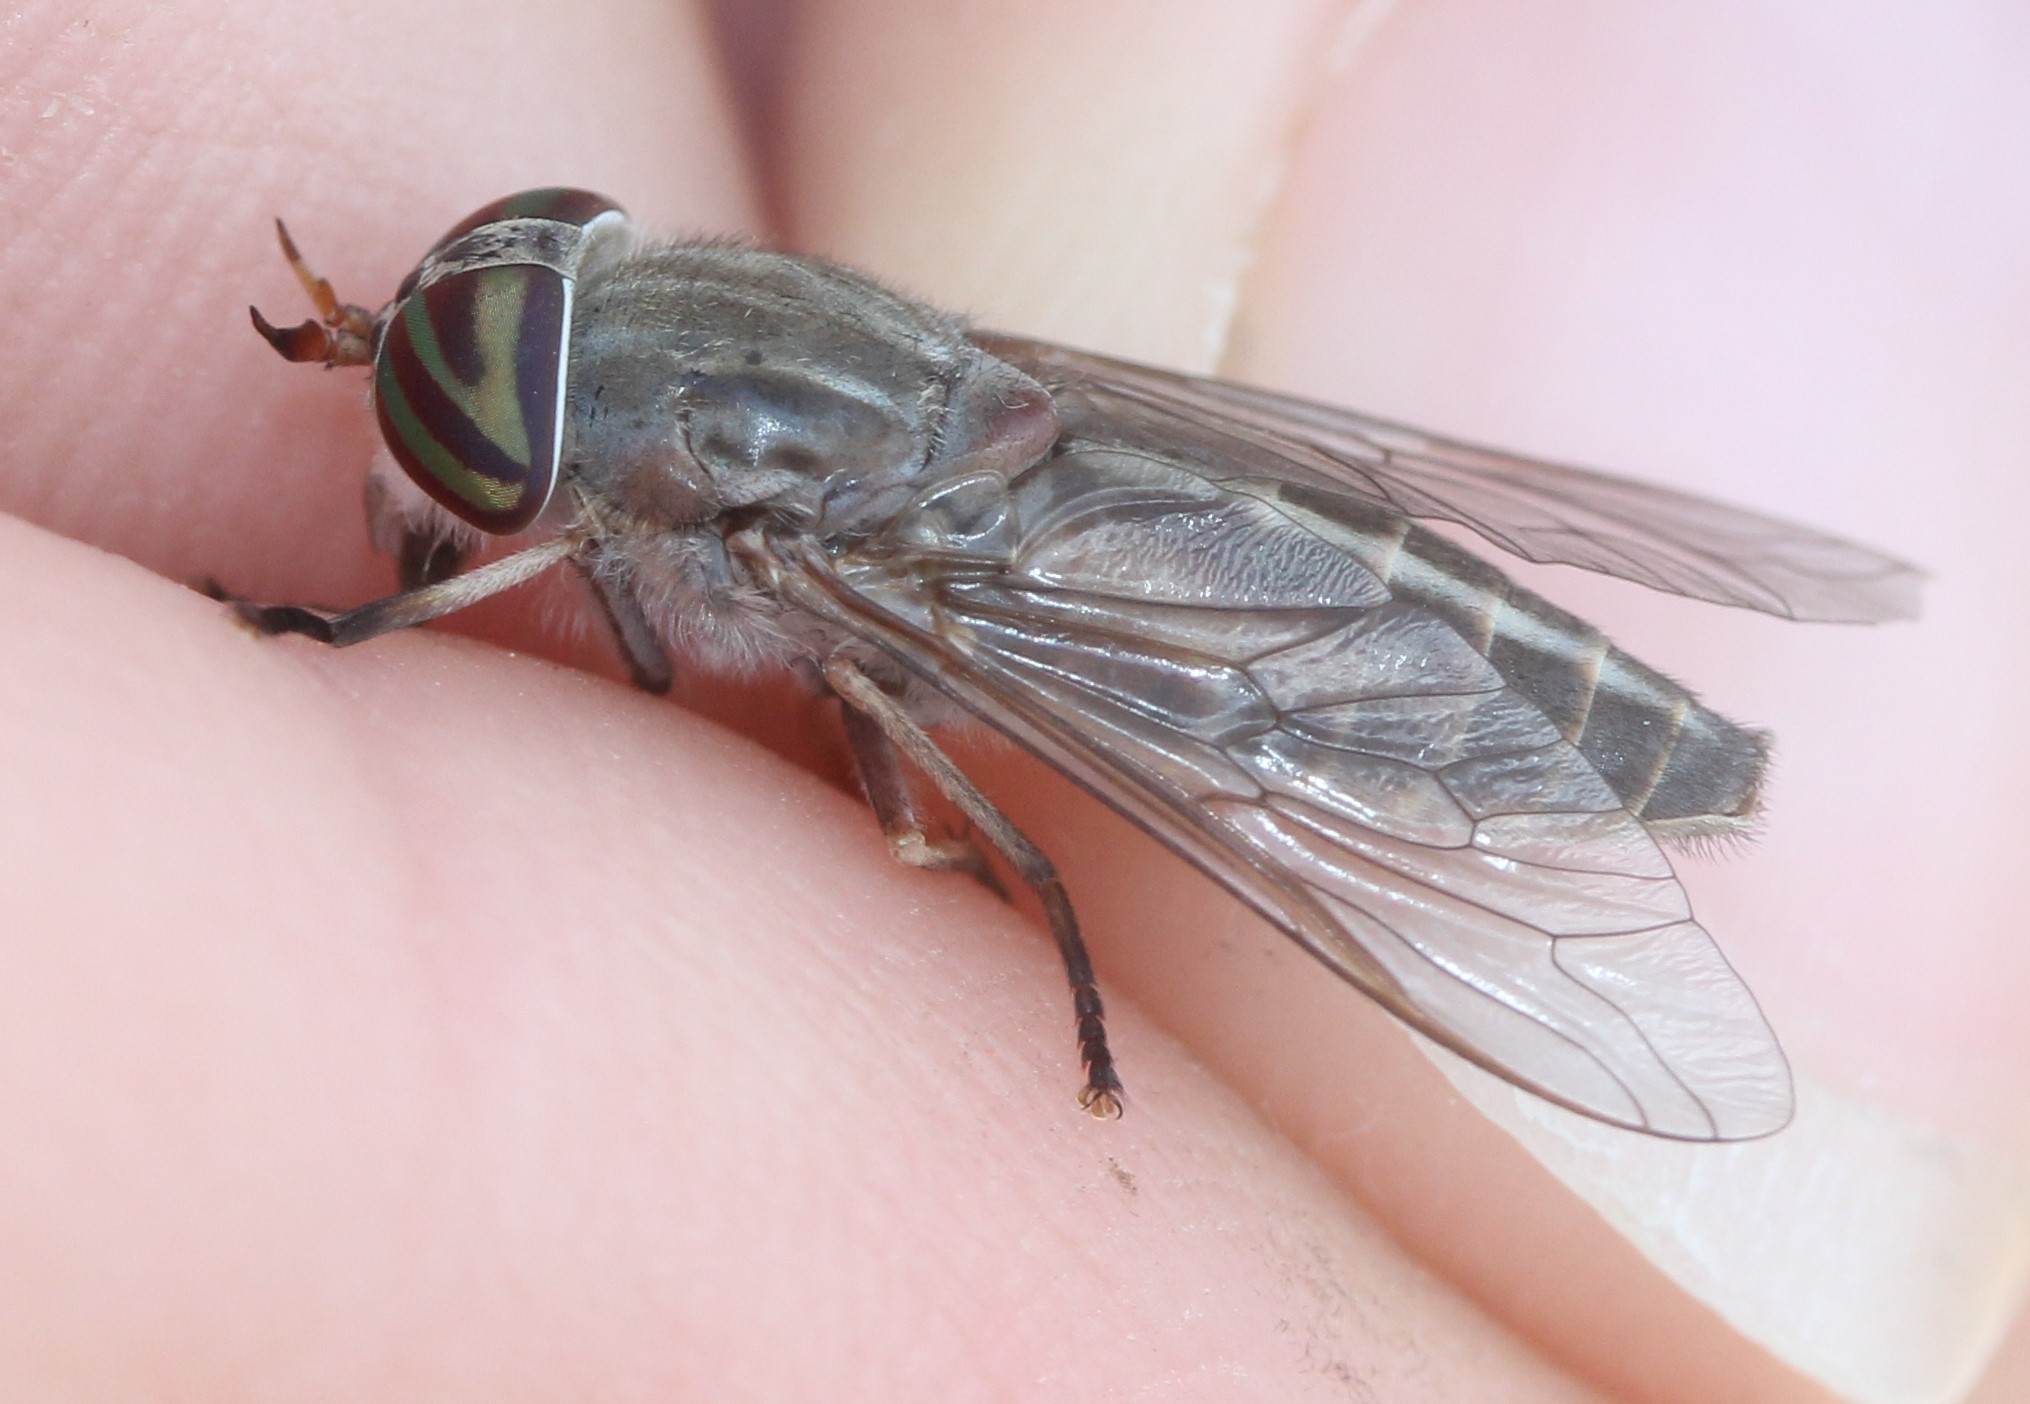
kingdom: Animalia
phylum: Arthropoda
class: Insecta
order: Diptera
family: Tabanidae
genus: Tabanus
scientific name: Tabanus subsimilis
